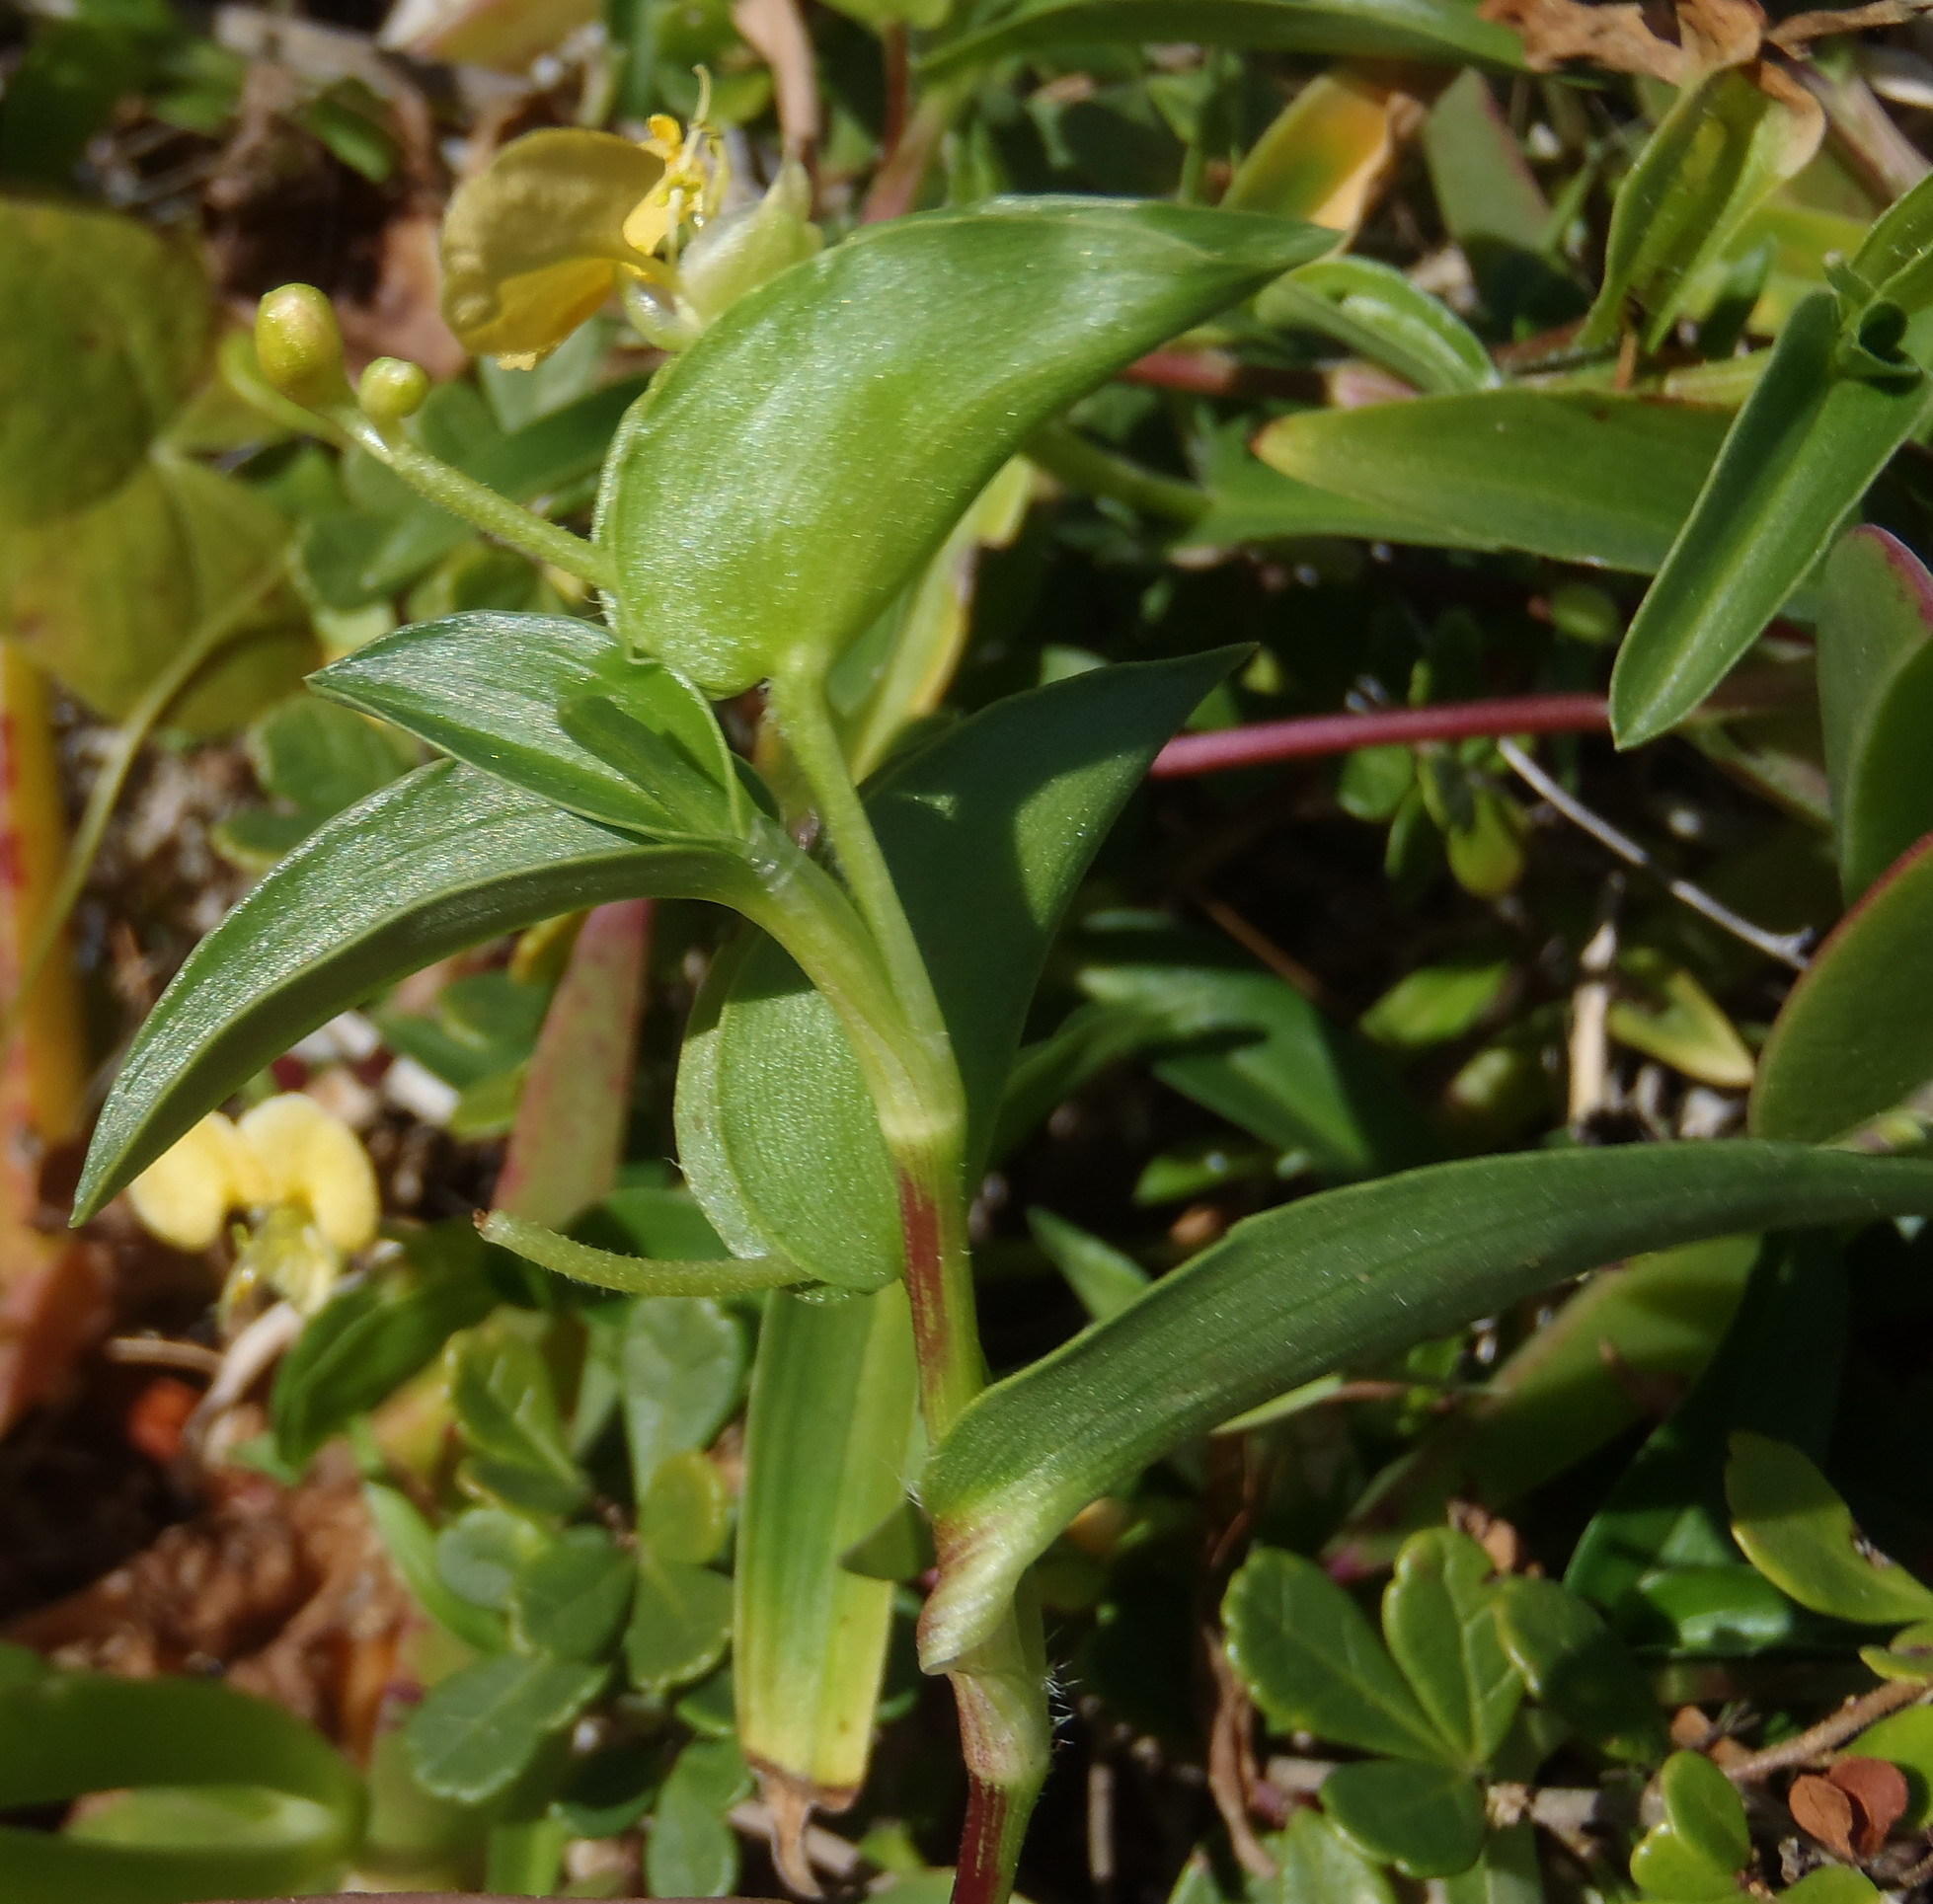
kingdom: Plantae
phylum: Tracheophyta
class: Liliopsida
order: Commelinales
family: Commelinaceae
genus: Commelina
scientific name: Commelina africana
